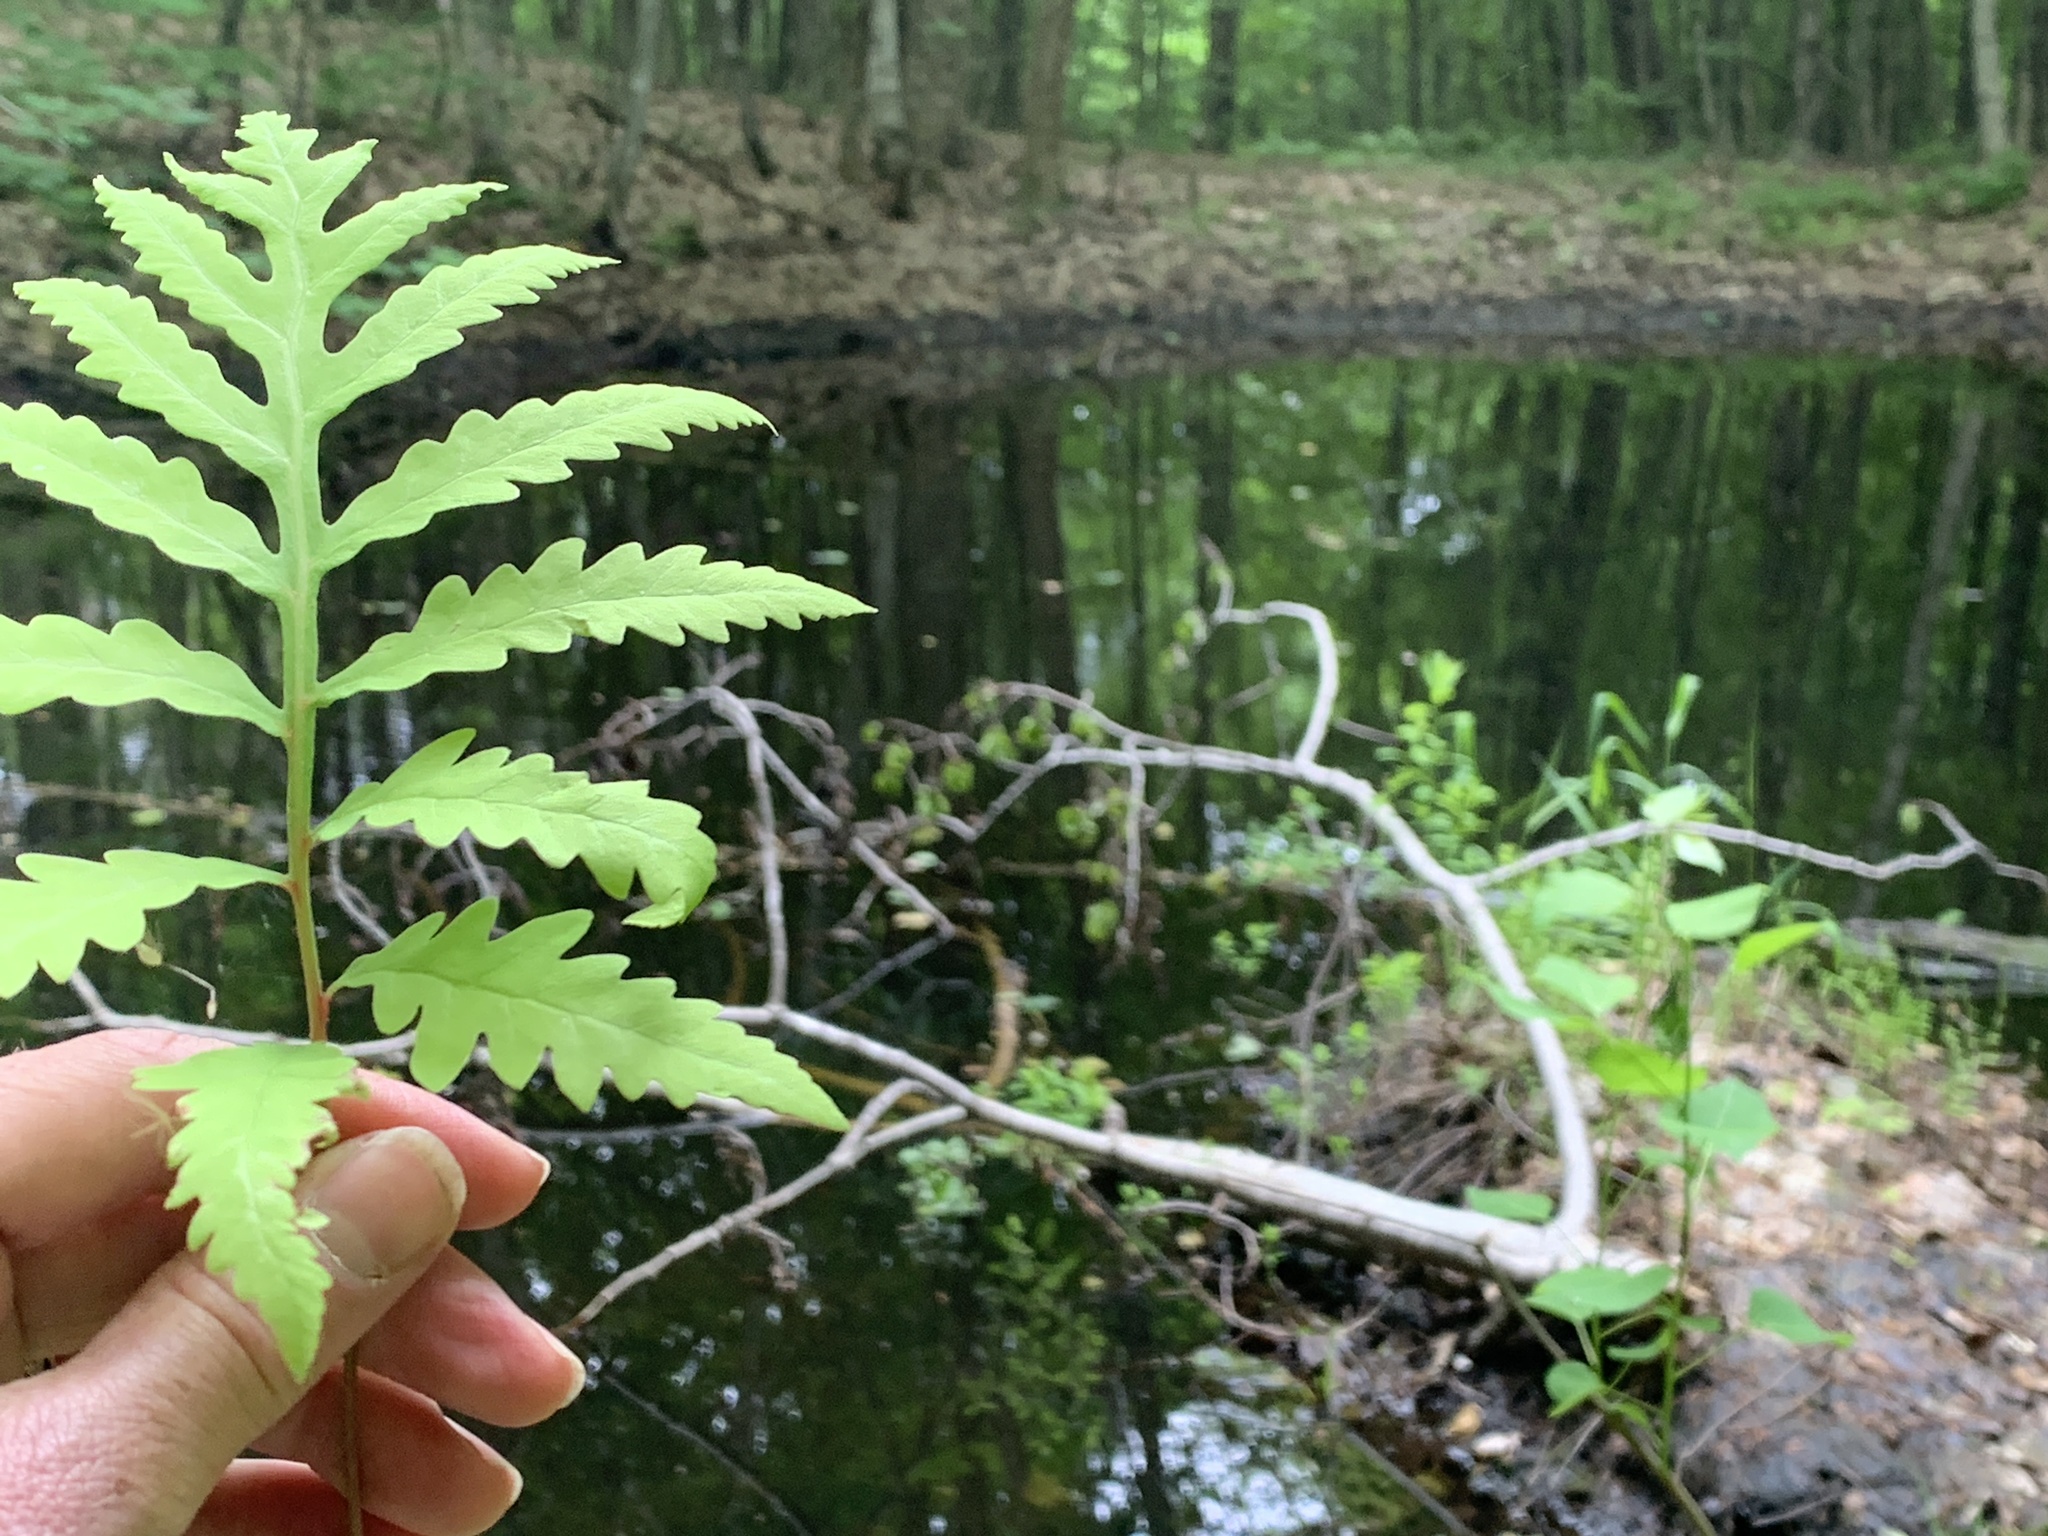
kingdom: Plantae
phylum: Tracheophyta
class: Polypodiopsida
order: Polypodiales
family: Onocleaceae
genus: Onoclea
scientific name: Onoclea sensibilis
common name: Sensitive fern
